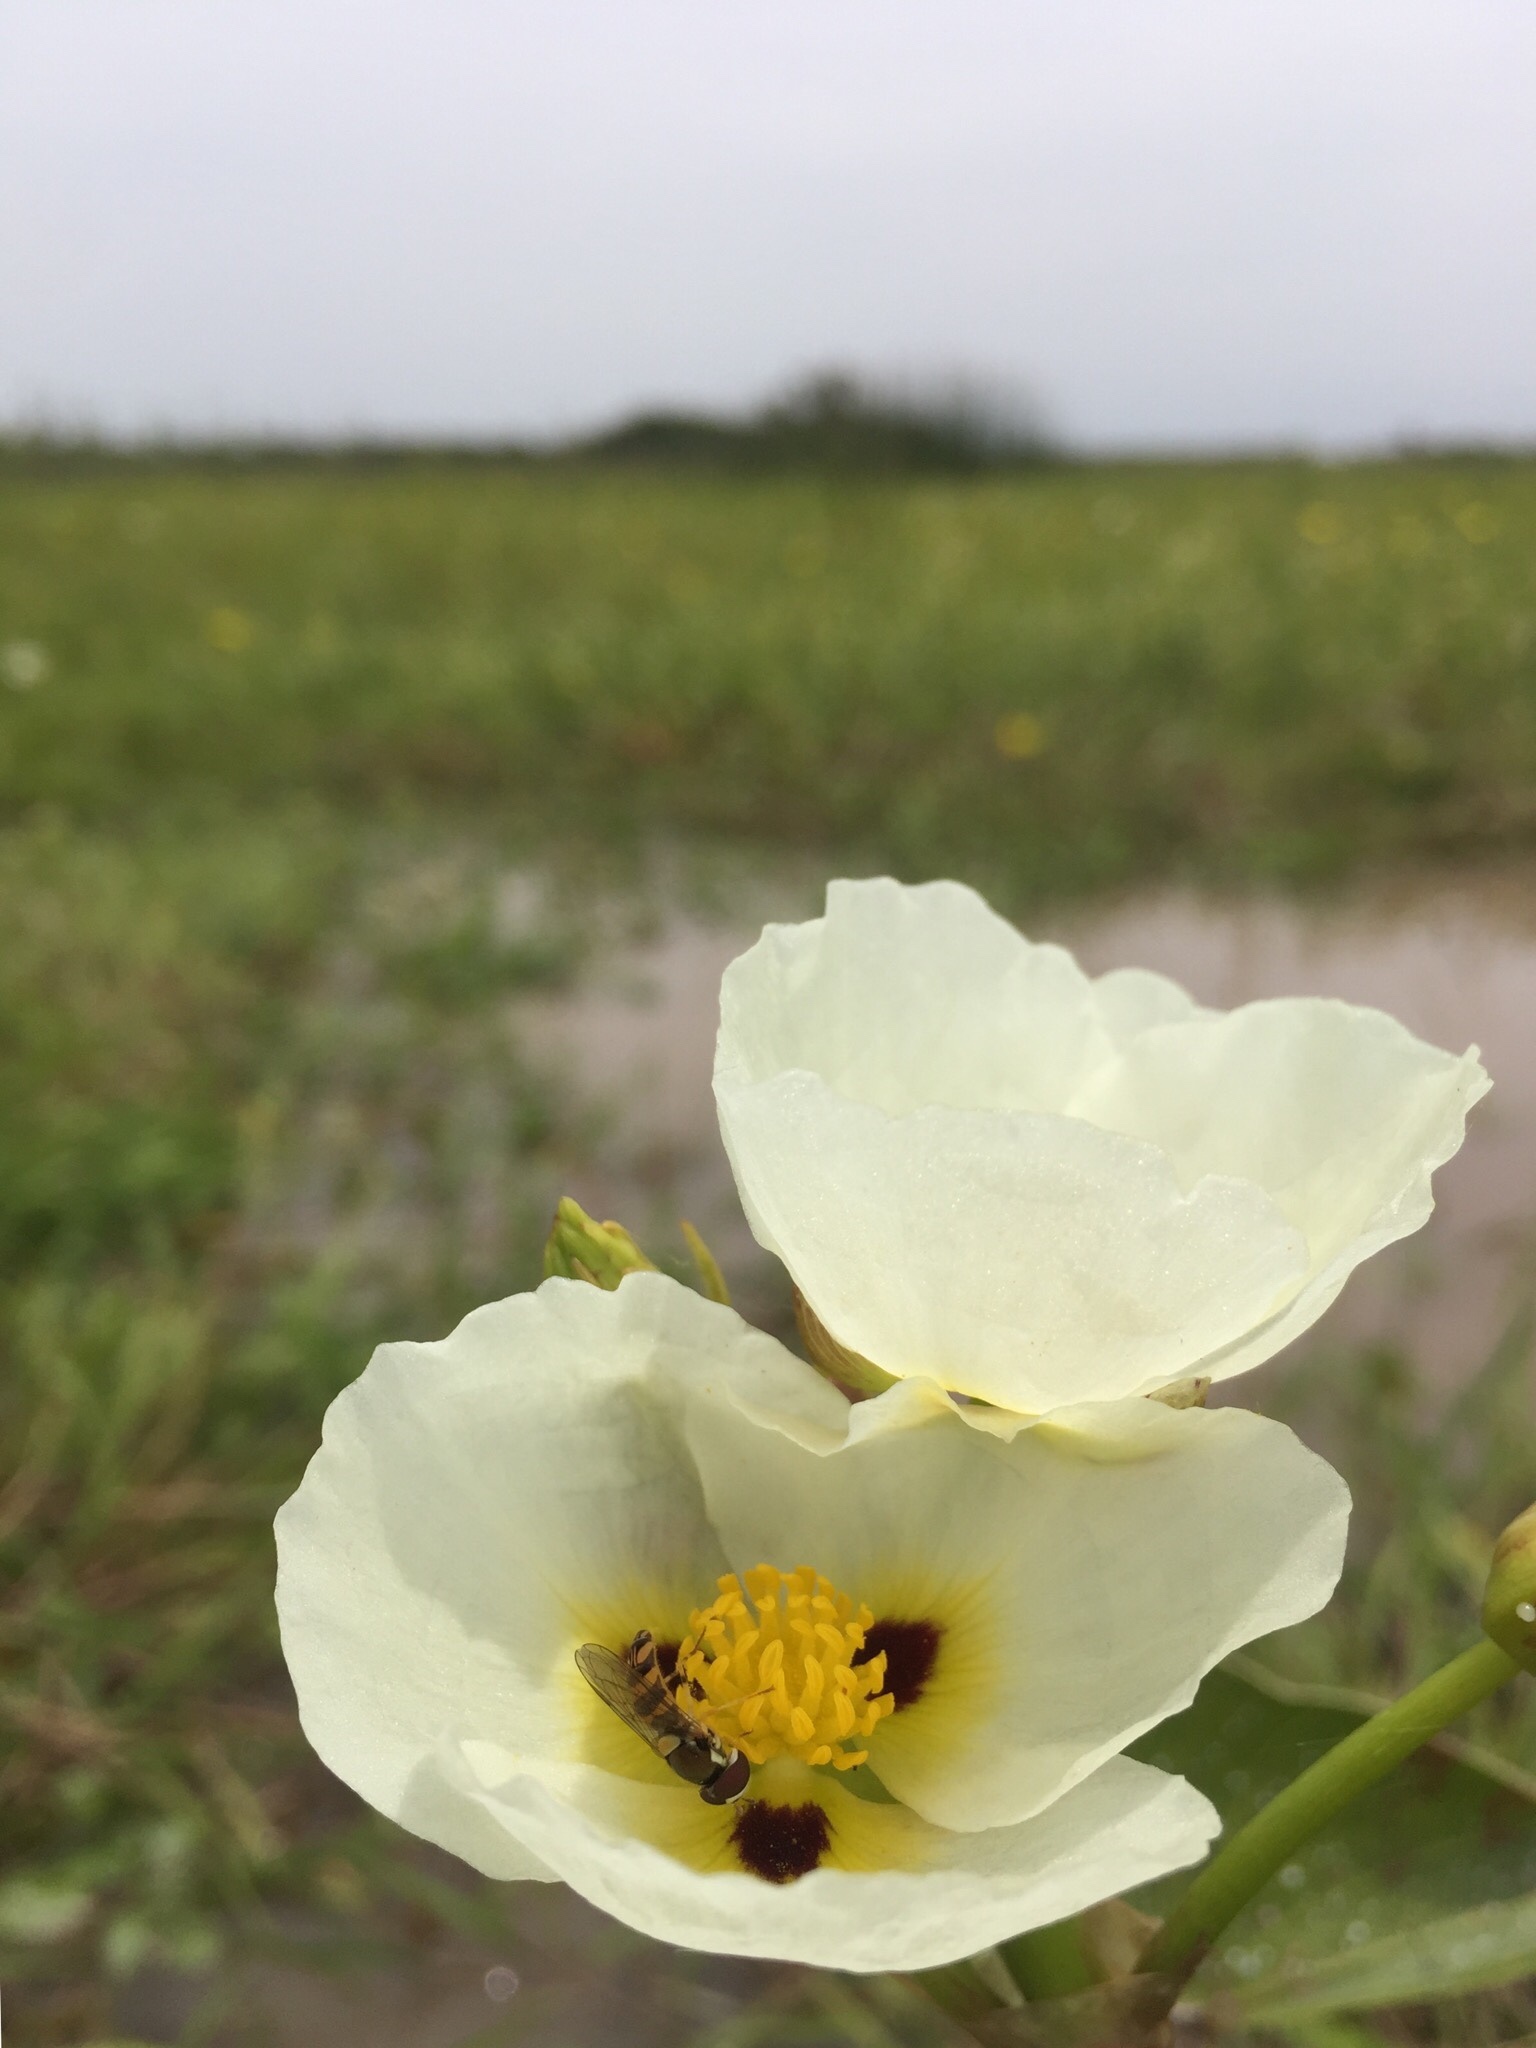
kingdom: Plantae
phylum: Tracheophyta
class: Liliopsida
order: Alismatales
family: Alismataceae
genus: Sagittaria
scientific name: Sagittaria montevidensis
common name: Giant arrowhead
